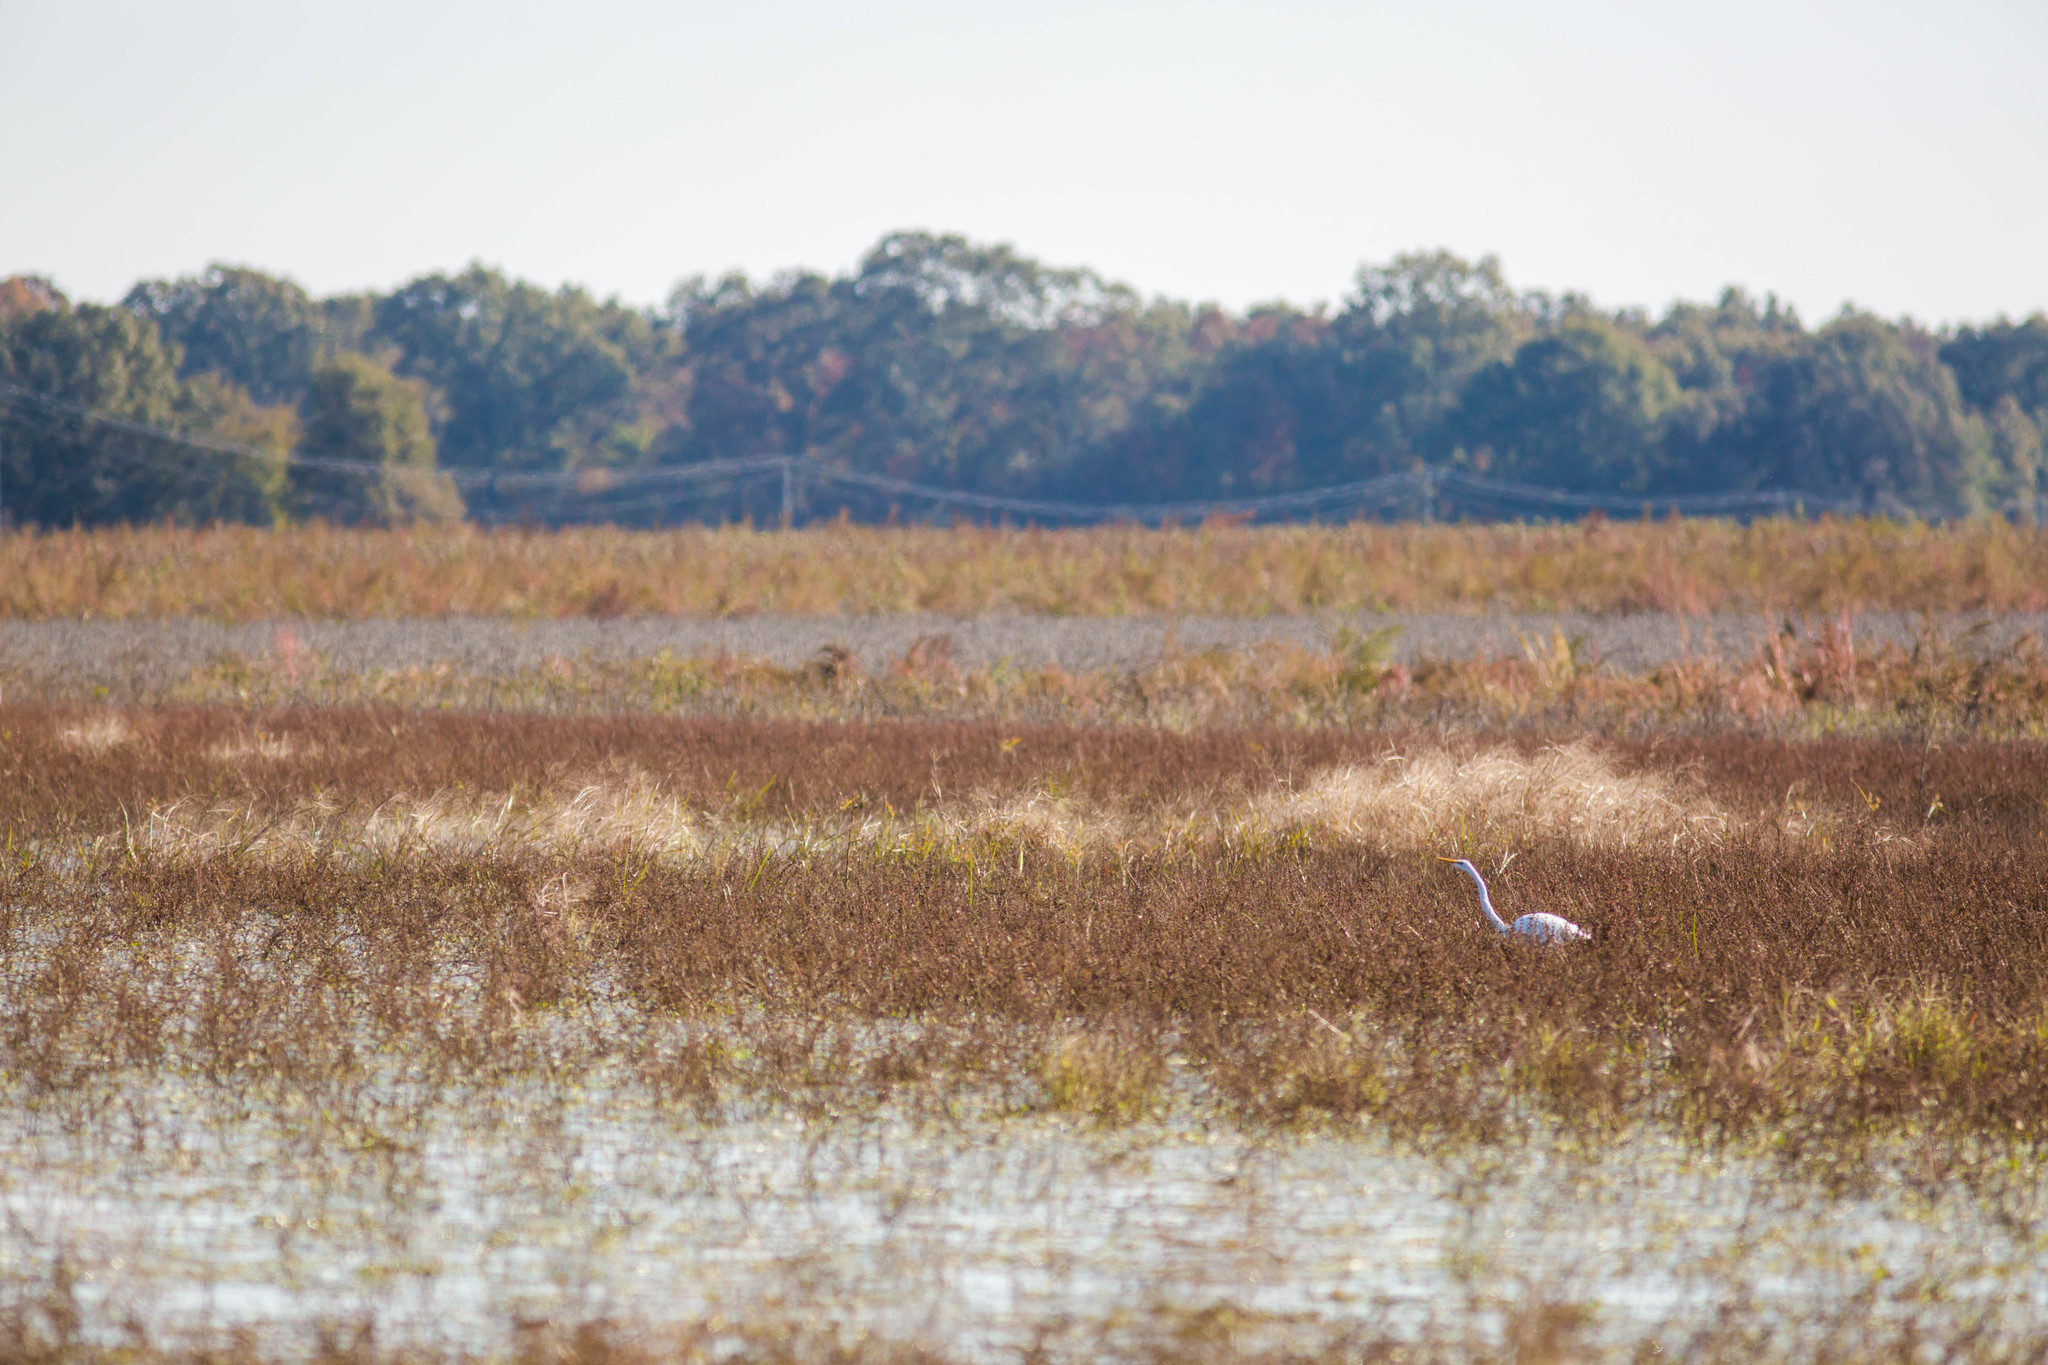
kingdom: Animalia
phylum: Chordata
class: Aves
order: Pelecaniformes
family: Ardeidae
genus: Ardea
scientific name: Ardea alba
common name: Great egret
